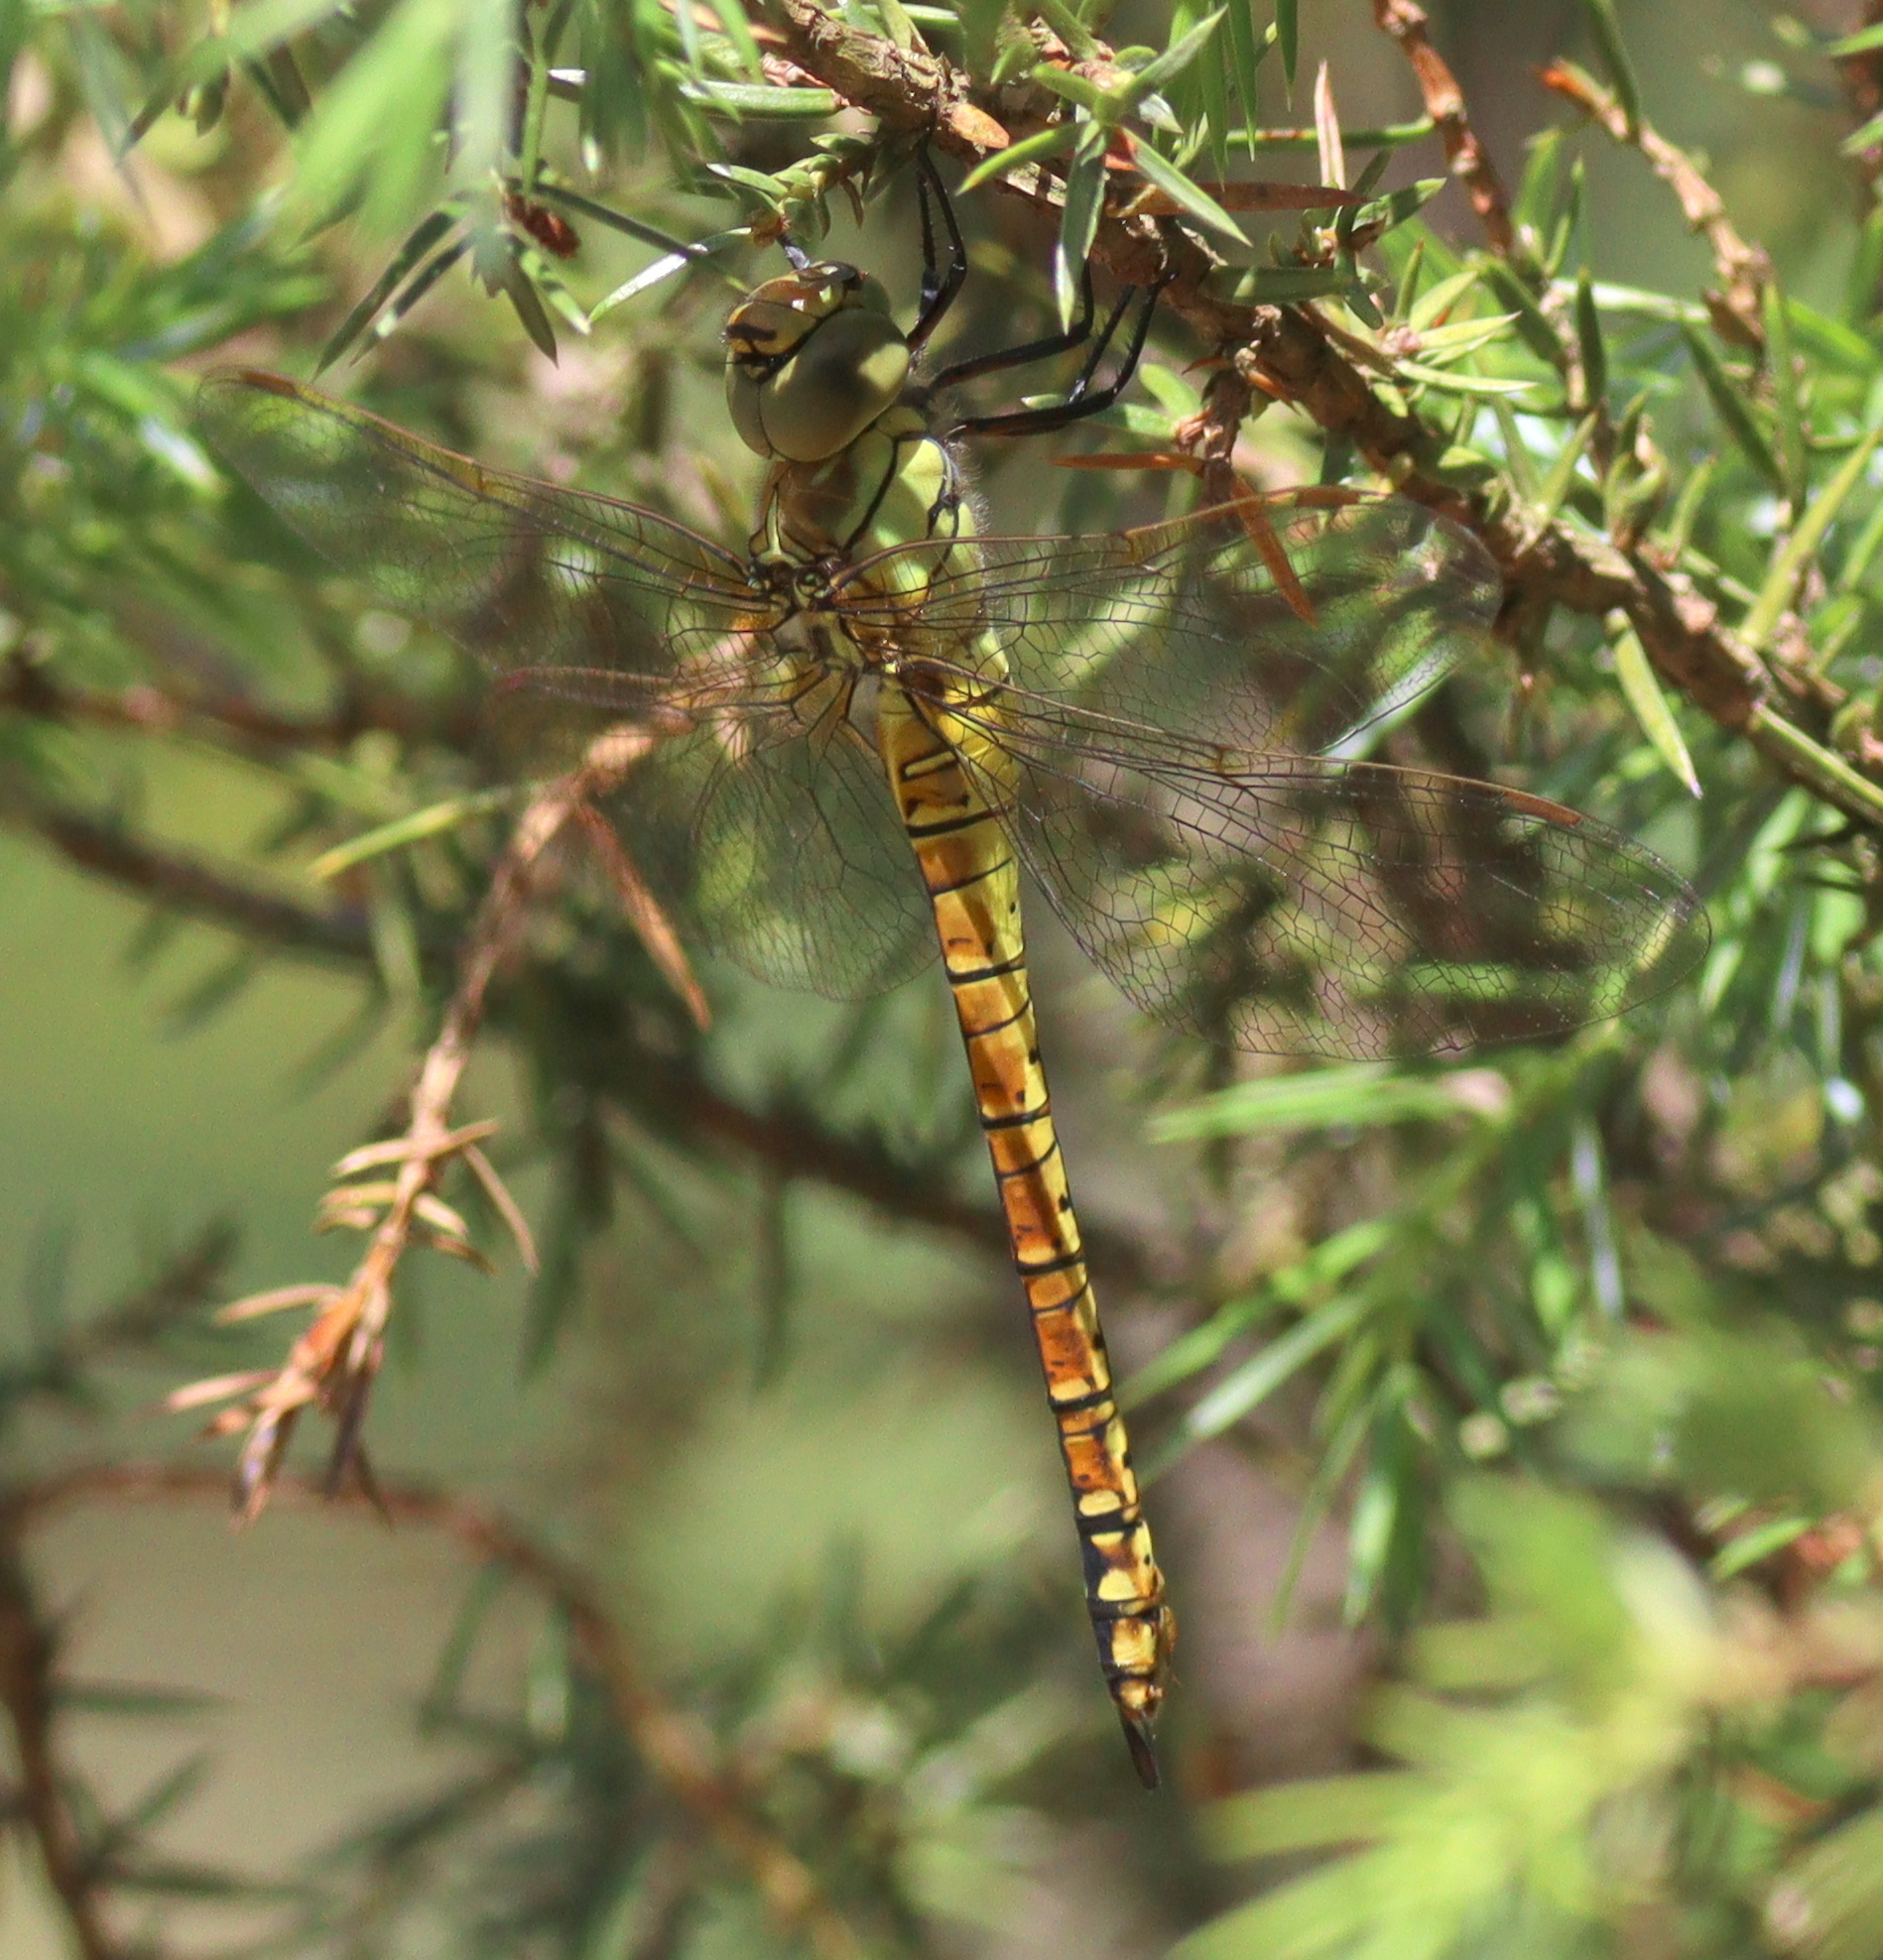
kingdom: Animalia
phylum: Arthropoda
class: Insecta
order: Odonata
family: Aeshnidae
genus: Aeshna
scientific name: Aeshna affinis
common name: Southern migrant hawker
